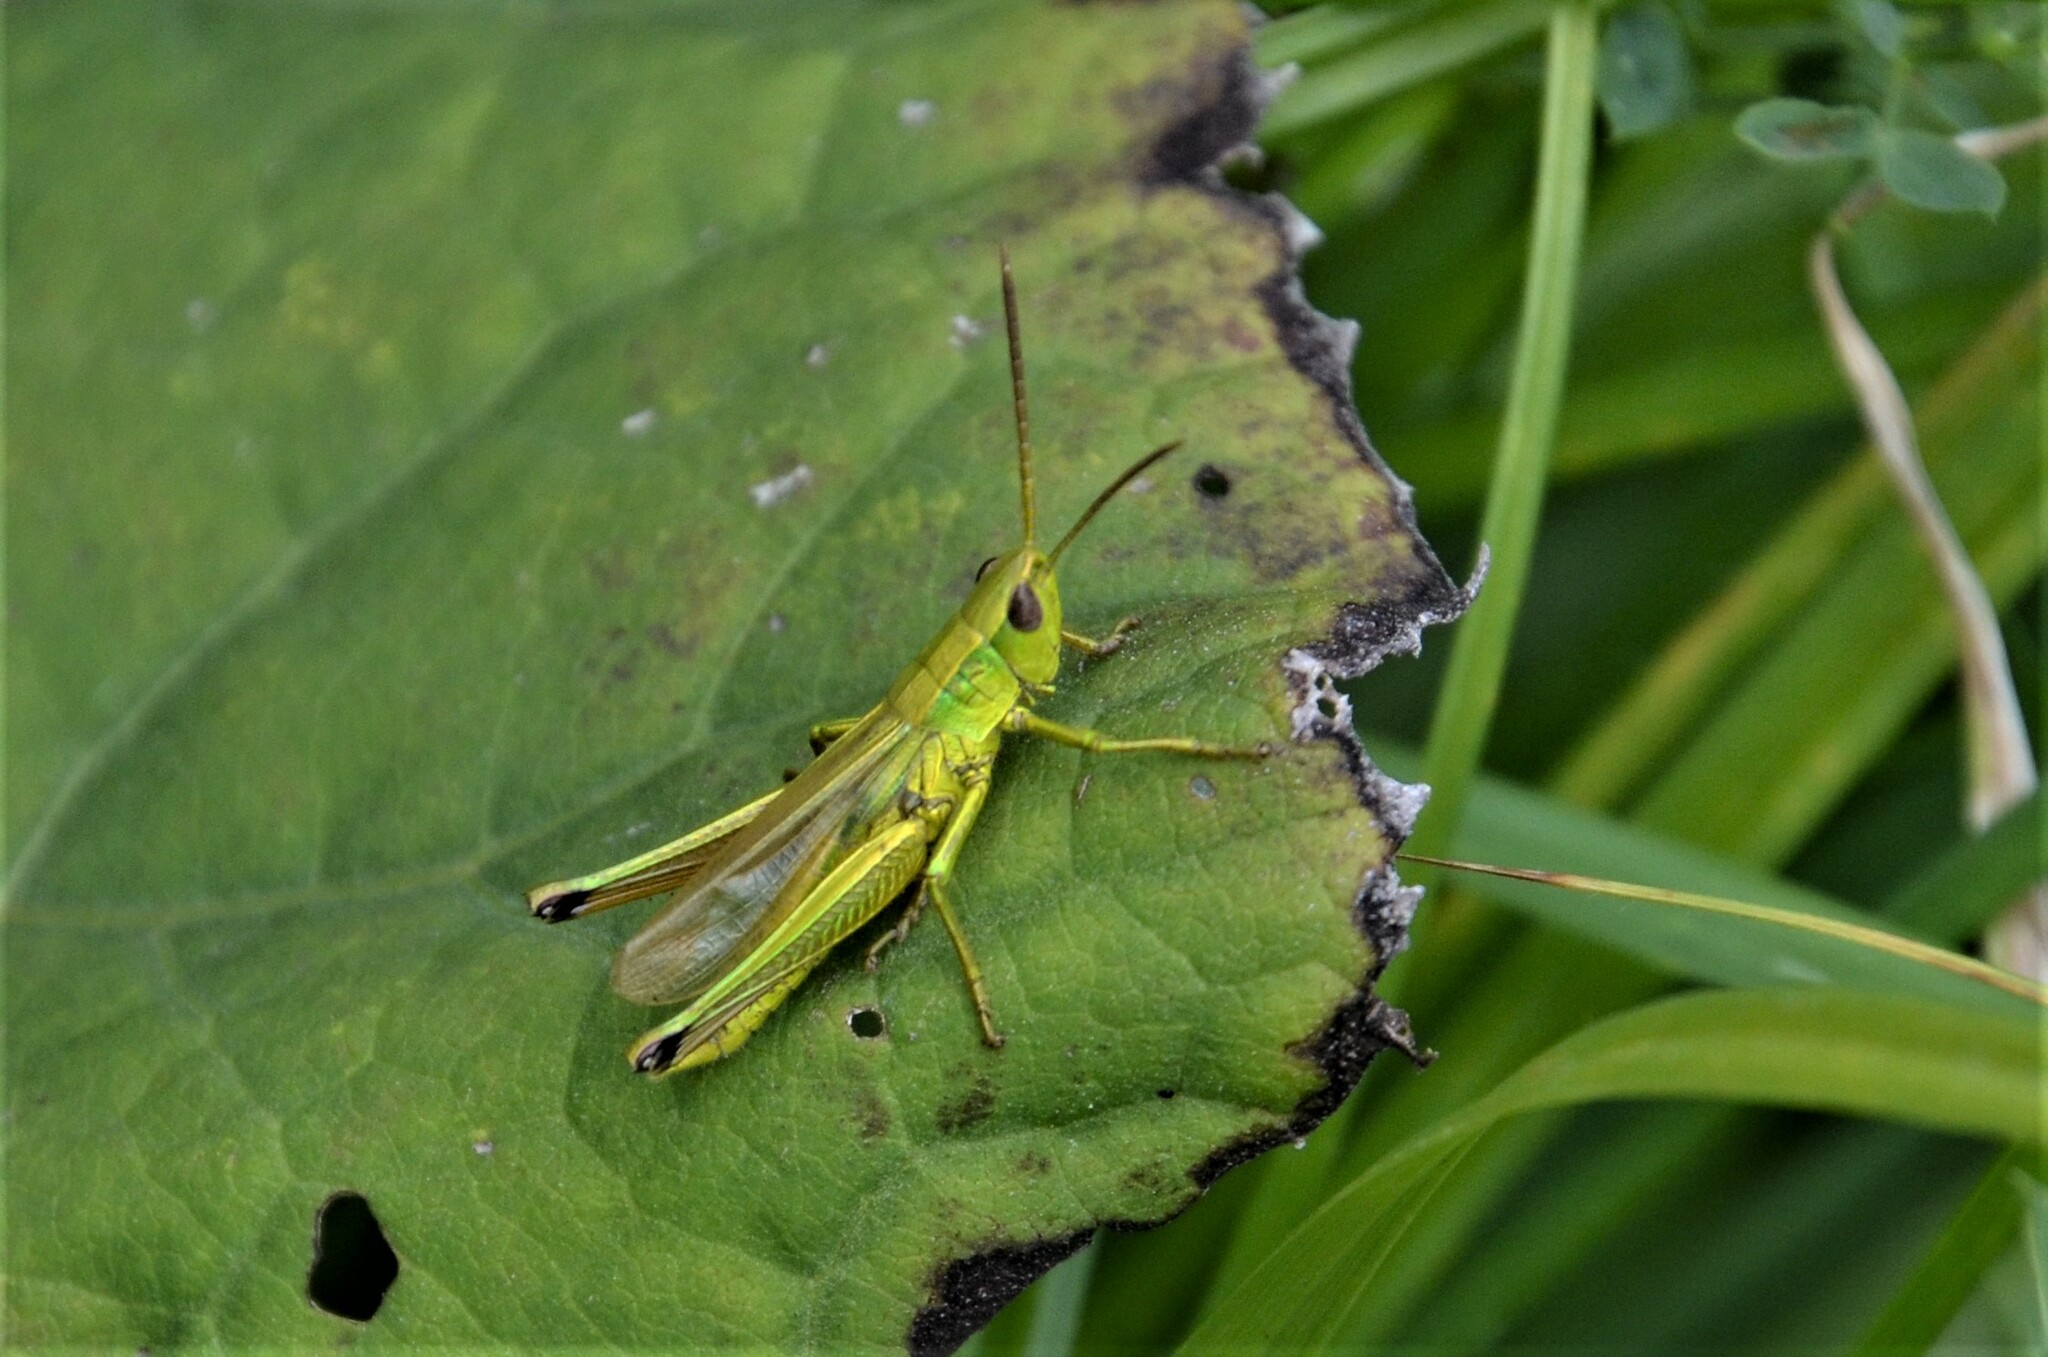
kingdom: Animalia
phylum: Arthropoda
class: Insecta
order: Orthoptera
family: Acrididae
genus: Chrysochraon
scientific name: Chrysochraon dispar
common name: Large gold grasshopper
